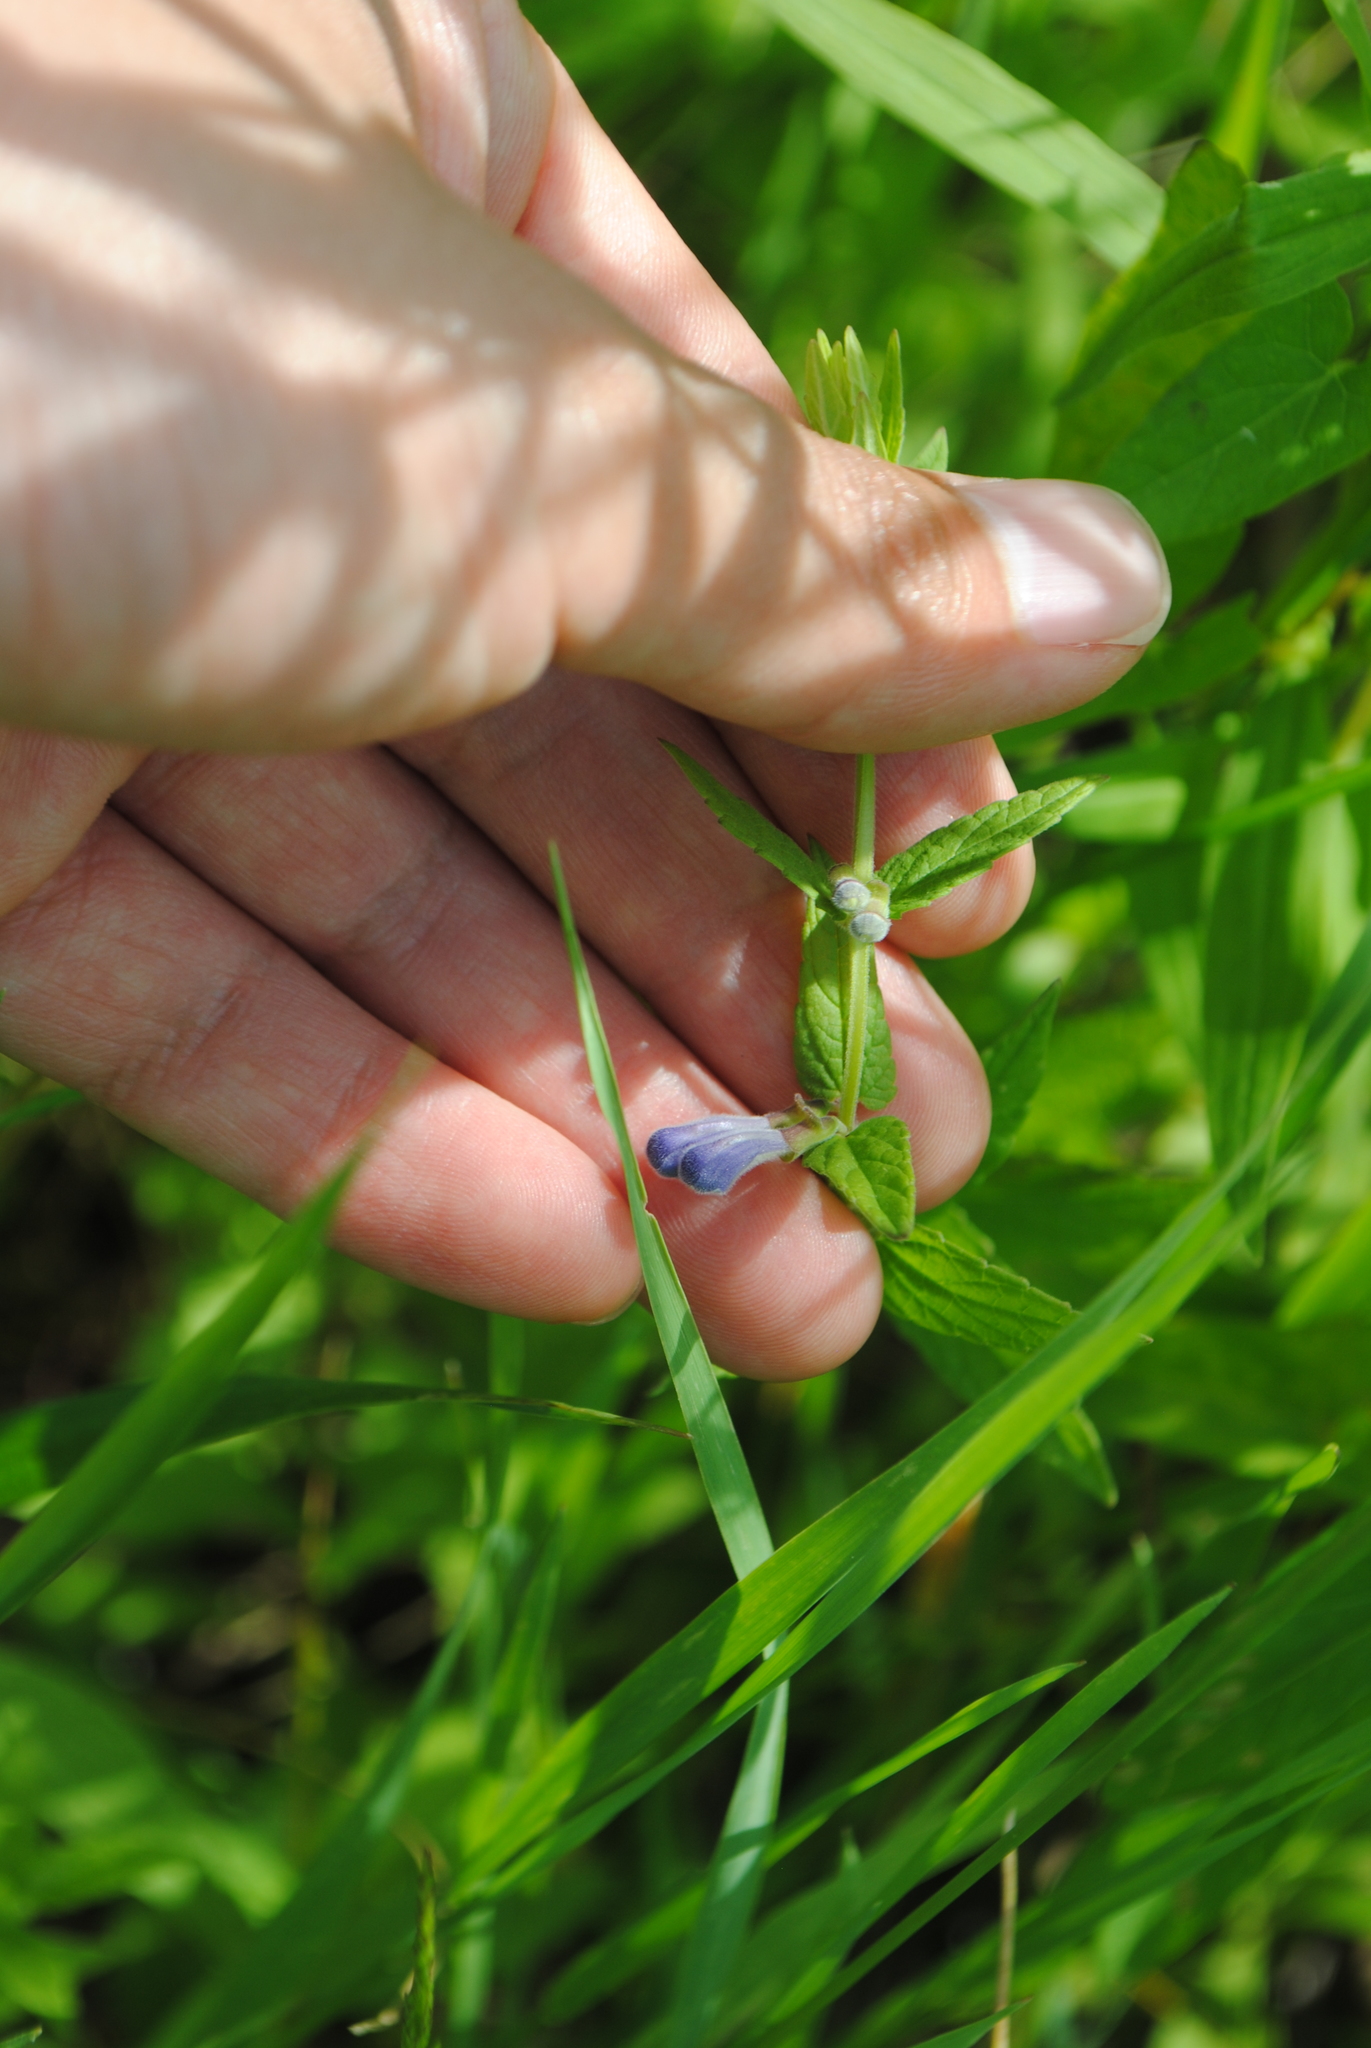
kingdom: Plantae
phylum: Tracheophyta
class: Magnoliopsida
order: Lamiales
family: Lamiaceae
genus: Scutellaria
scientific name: Scutellaria galericulata
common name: Skullcap
